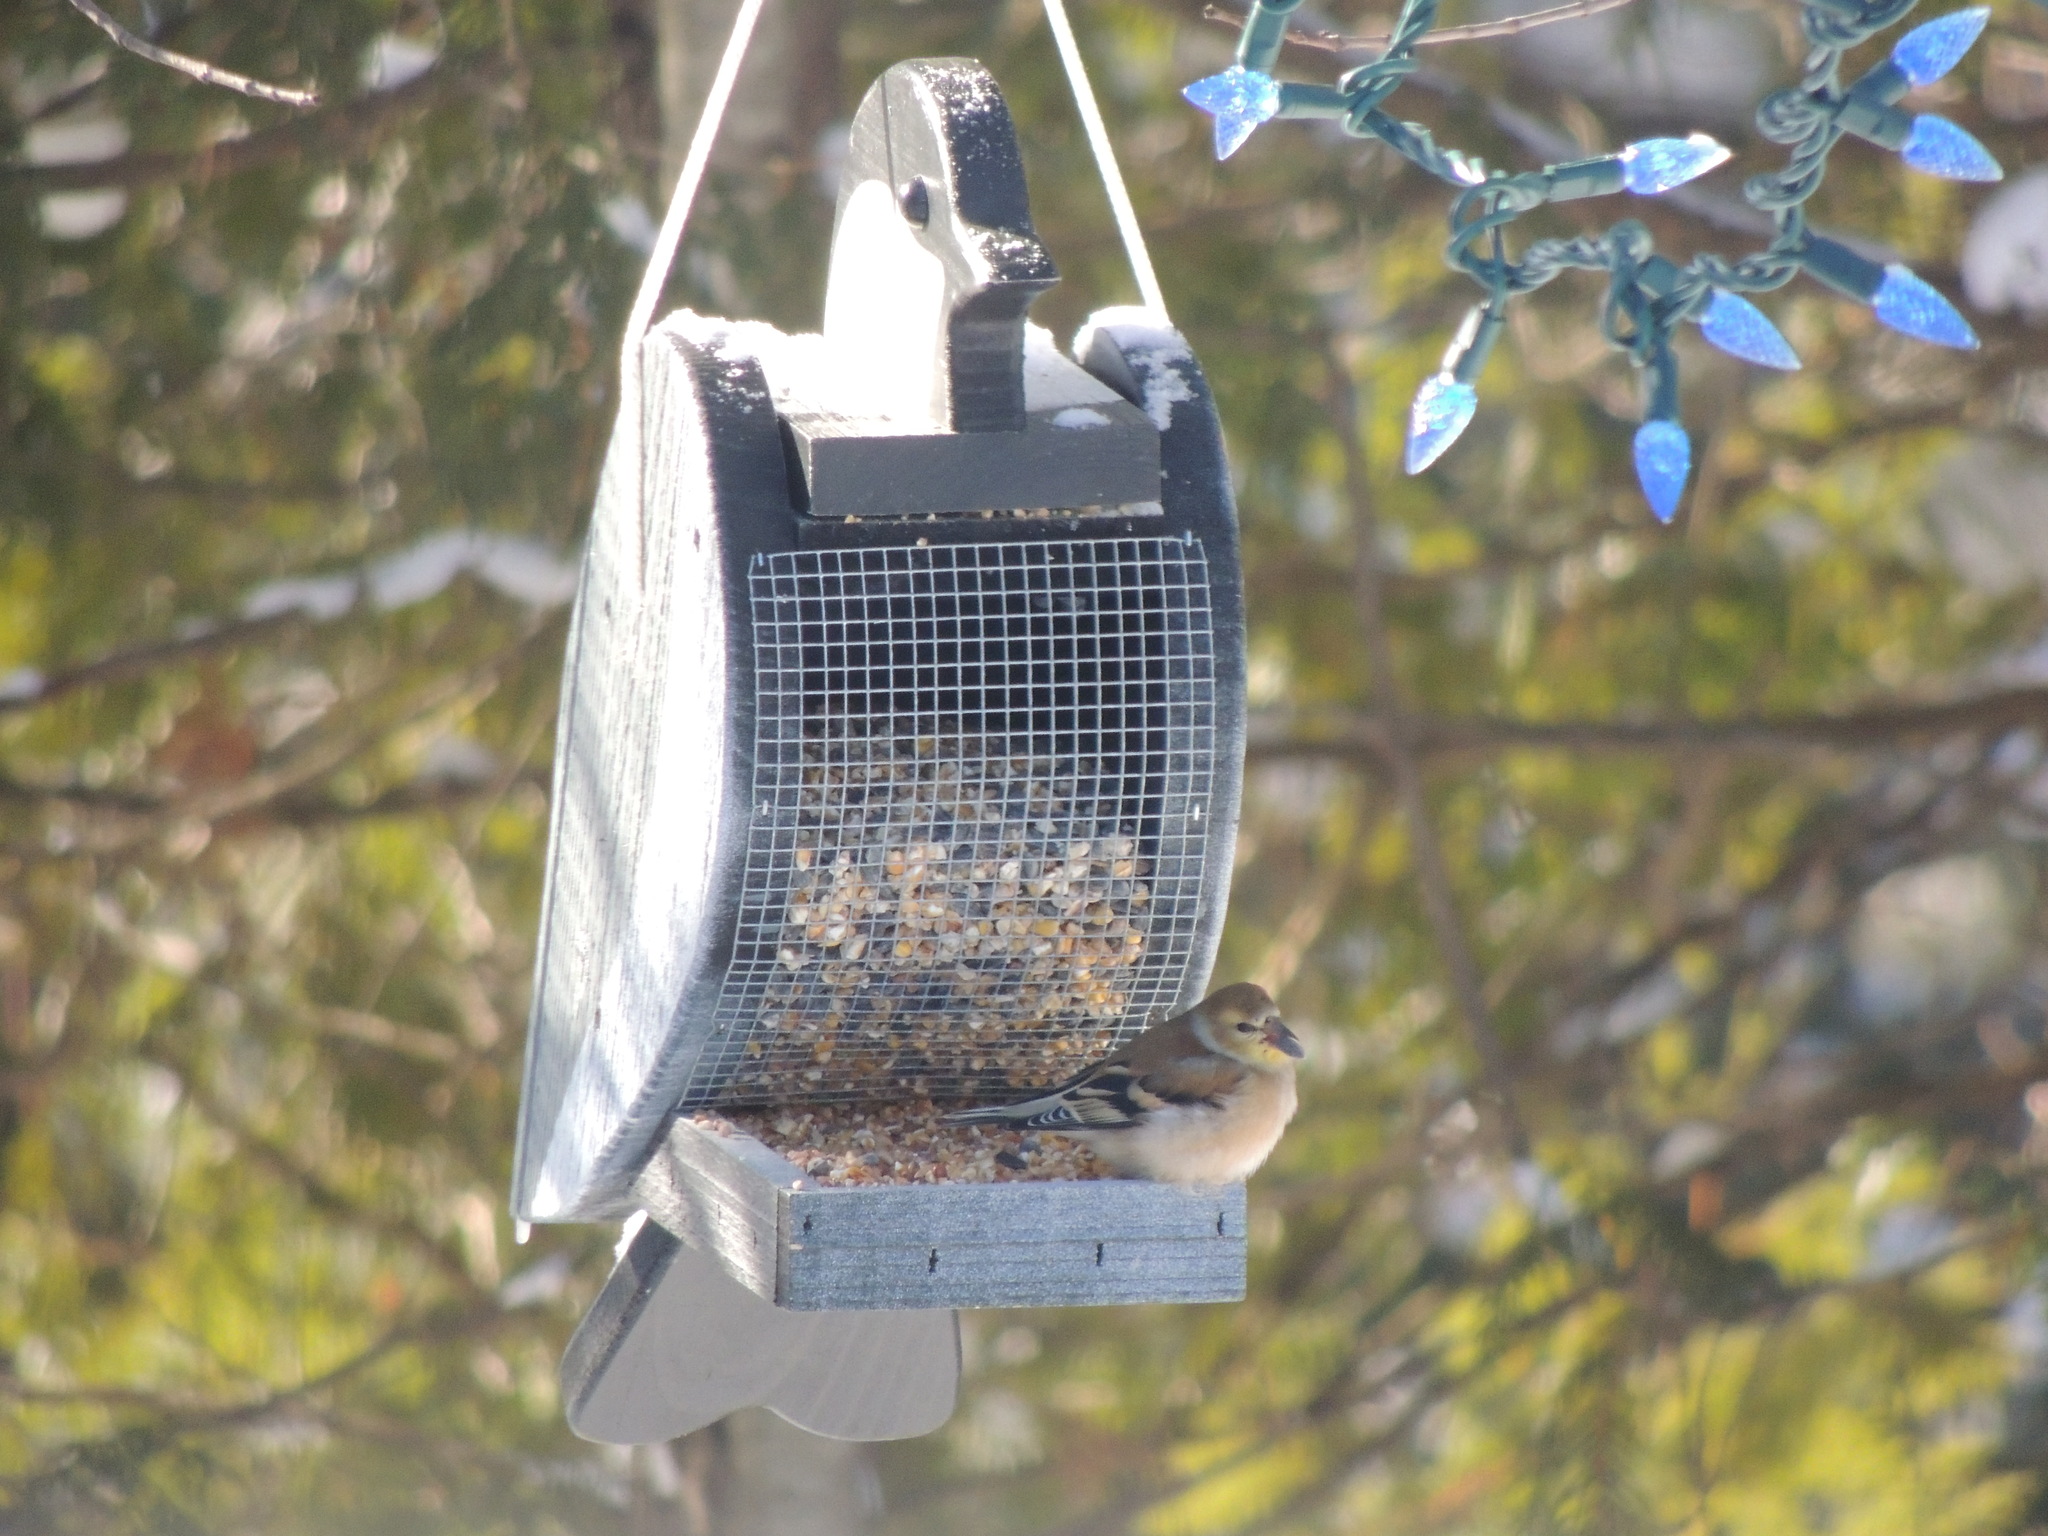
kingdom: Animalia
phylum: Chordata
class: Aves
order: Passeriformes
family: Fringillidae
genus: Spinus
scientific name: Spinus tristis
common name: American goldfinch
